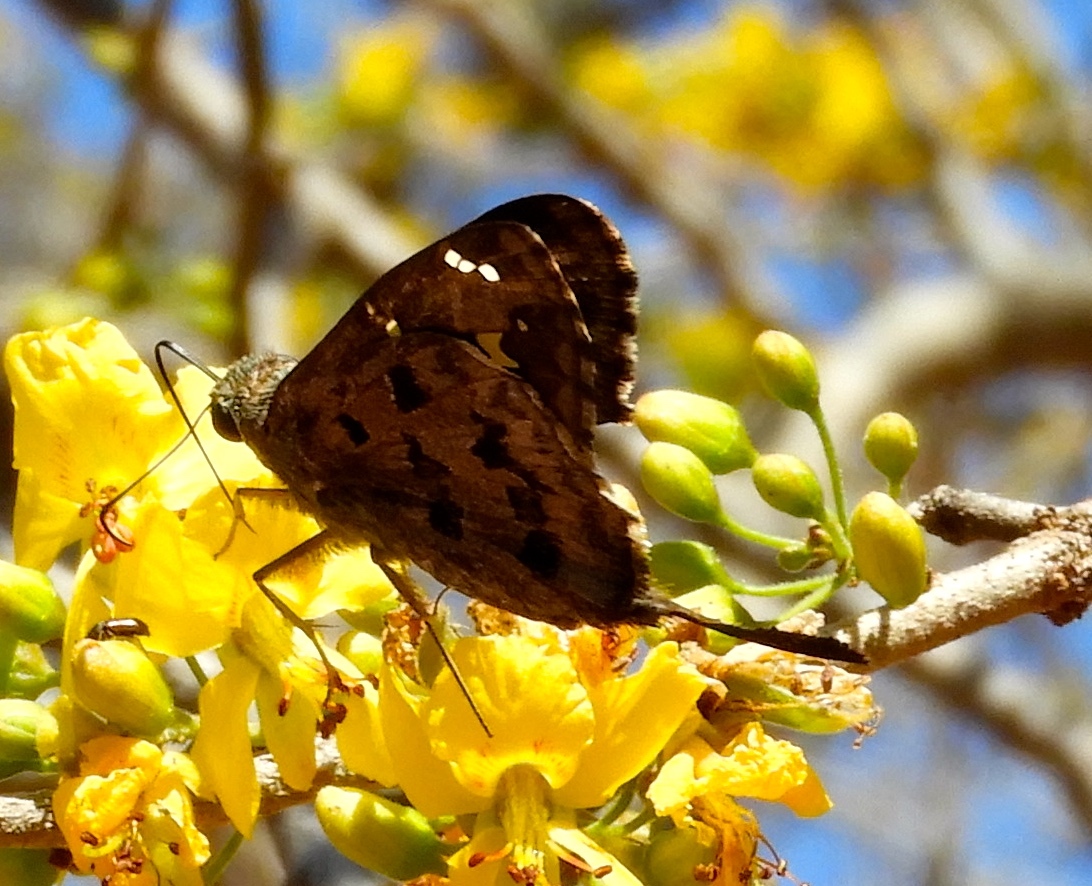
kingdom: Animalia
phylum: Arthropoda
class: Insecta
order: Lepidoptera
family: Hesperiidae
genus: Thorybes
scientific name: Thorybes
